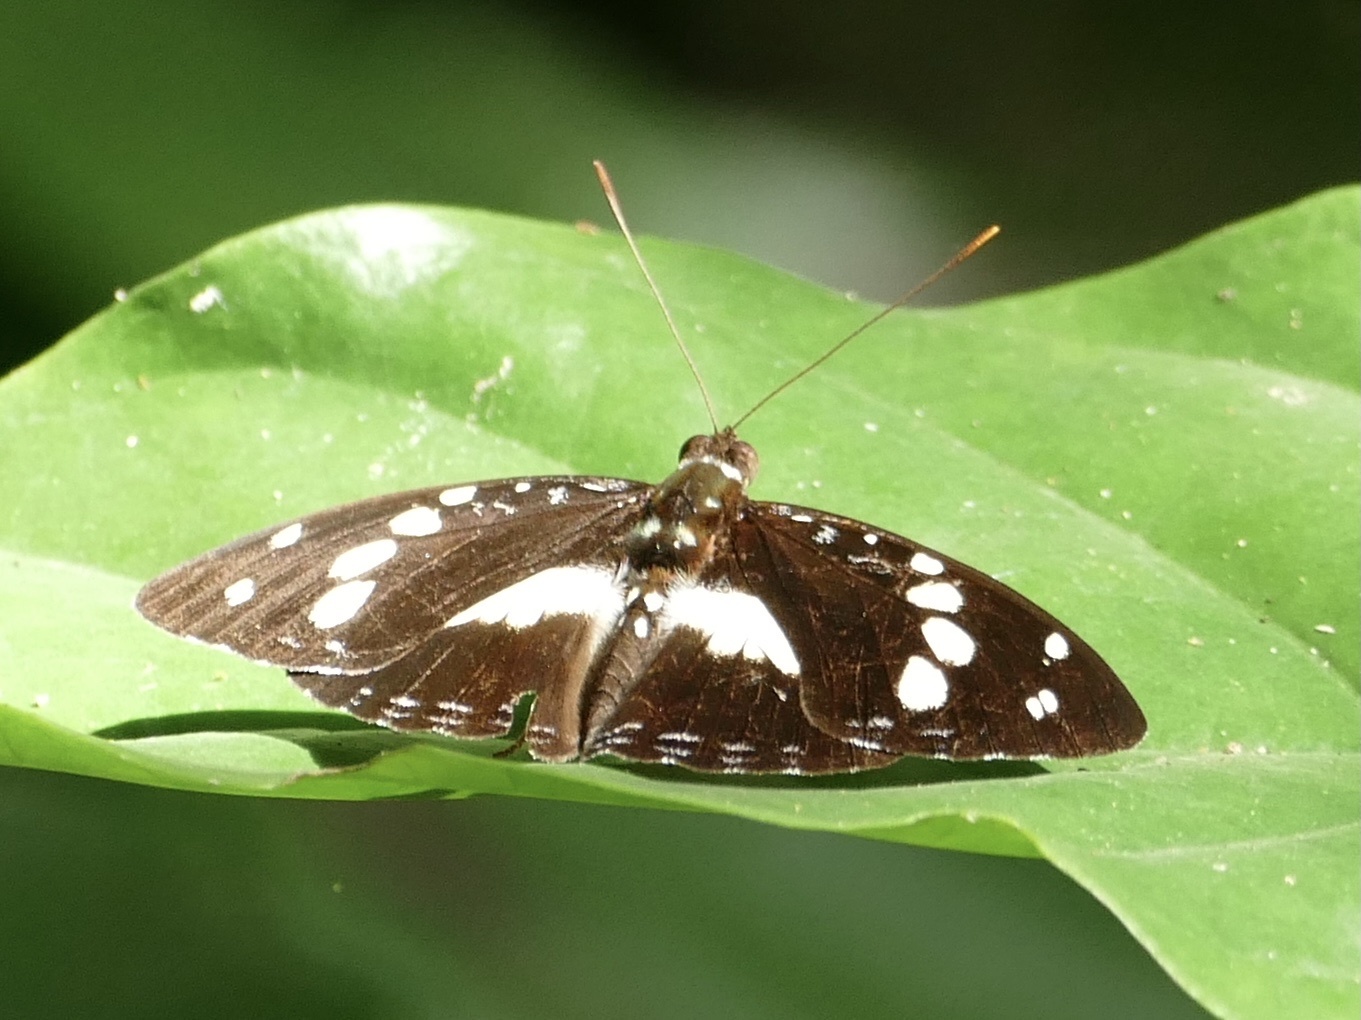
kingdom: Animalia
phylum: Arthropoda
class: Insecta
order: Lepidoptera
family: Nymphalidae
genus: Aterica
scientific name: Aterica galene
